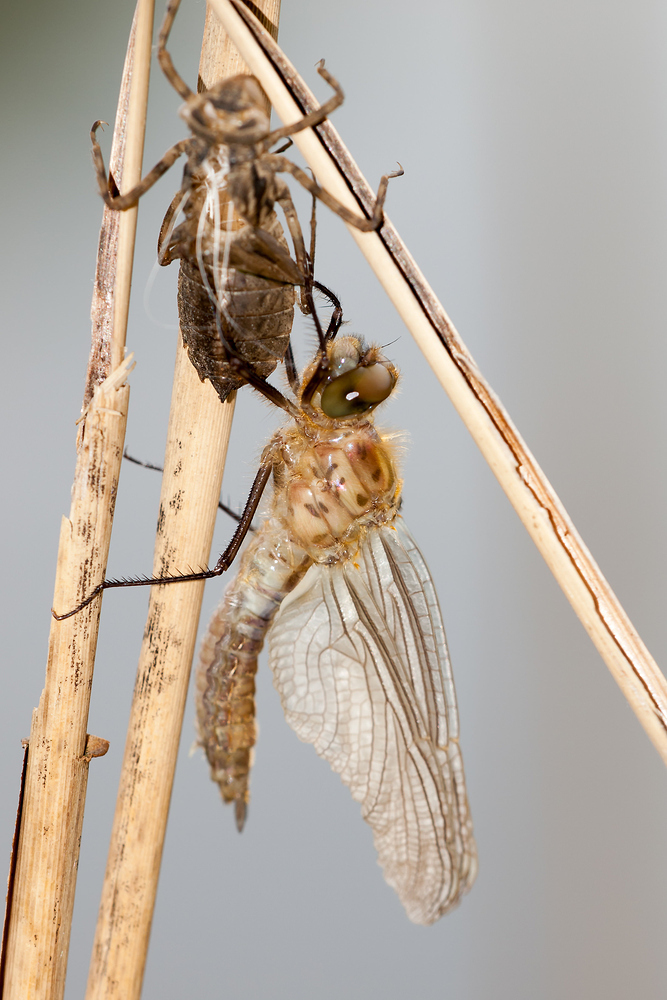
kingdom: Animalia
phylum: Arthropoda
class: Insecta
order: Odonata
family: Corduliidae
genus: Cordulia
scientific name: Cordulia aenea
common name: Downy emerald
